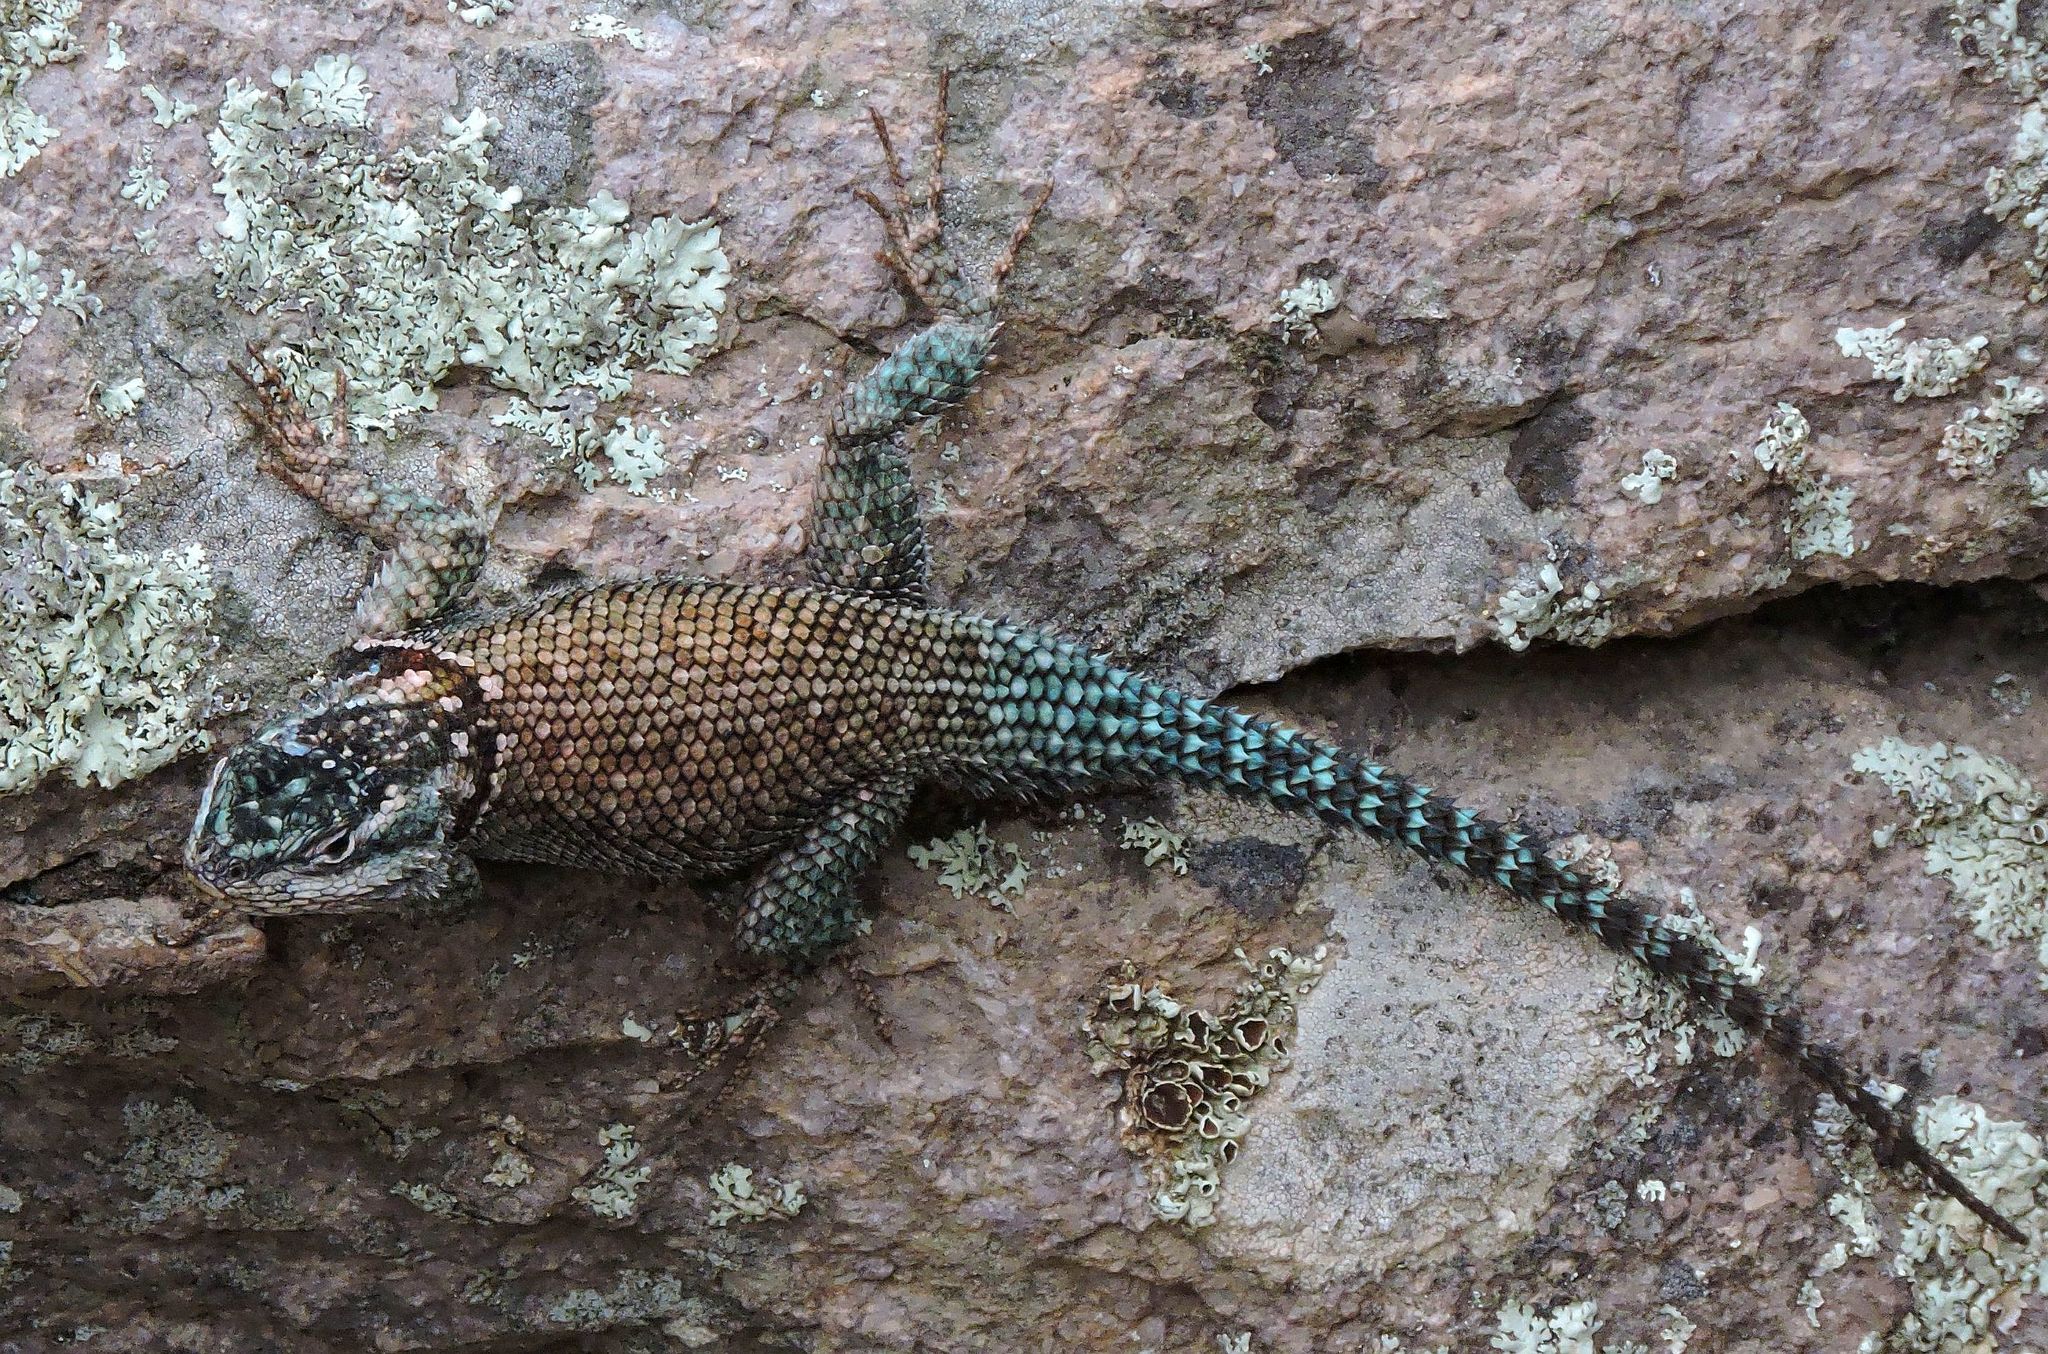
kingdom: Animalia
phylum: Chordata
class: Squamata
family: Phrynosomatidae
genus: Sceloporus
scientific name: Sceloporus jarrovii
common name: Yarrow's spiny lizard
